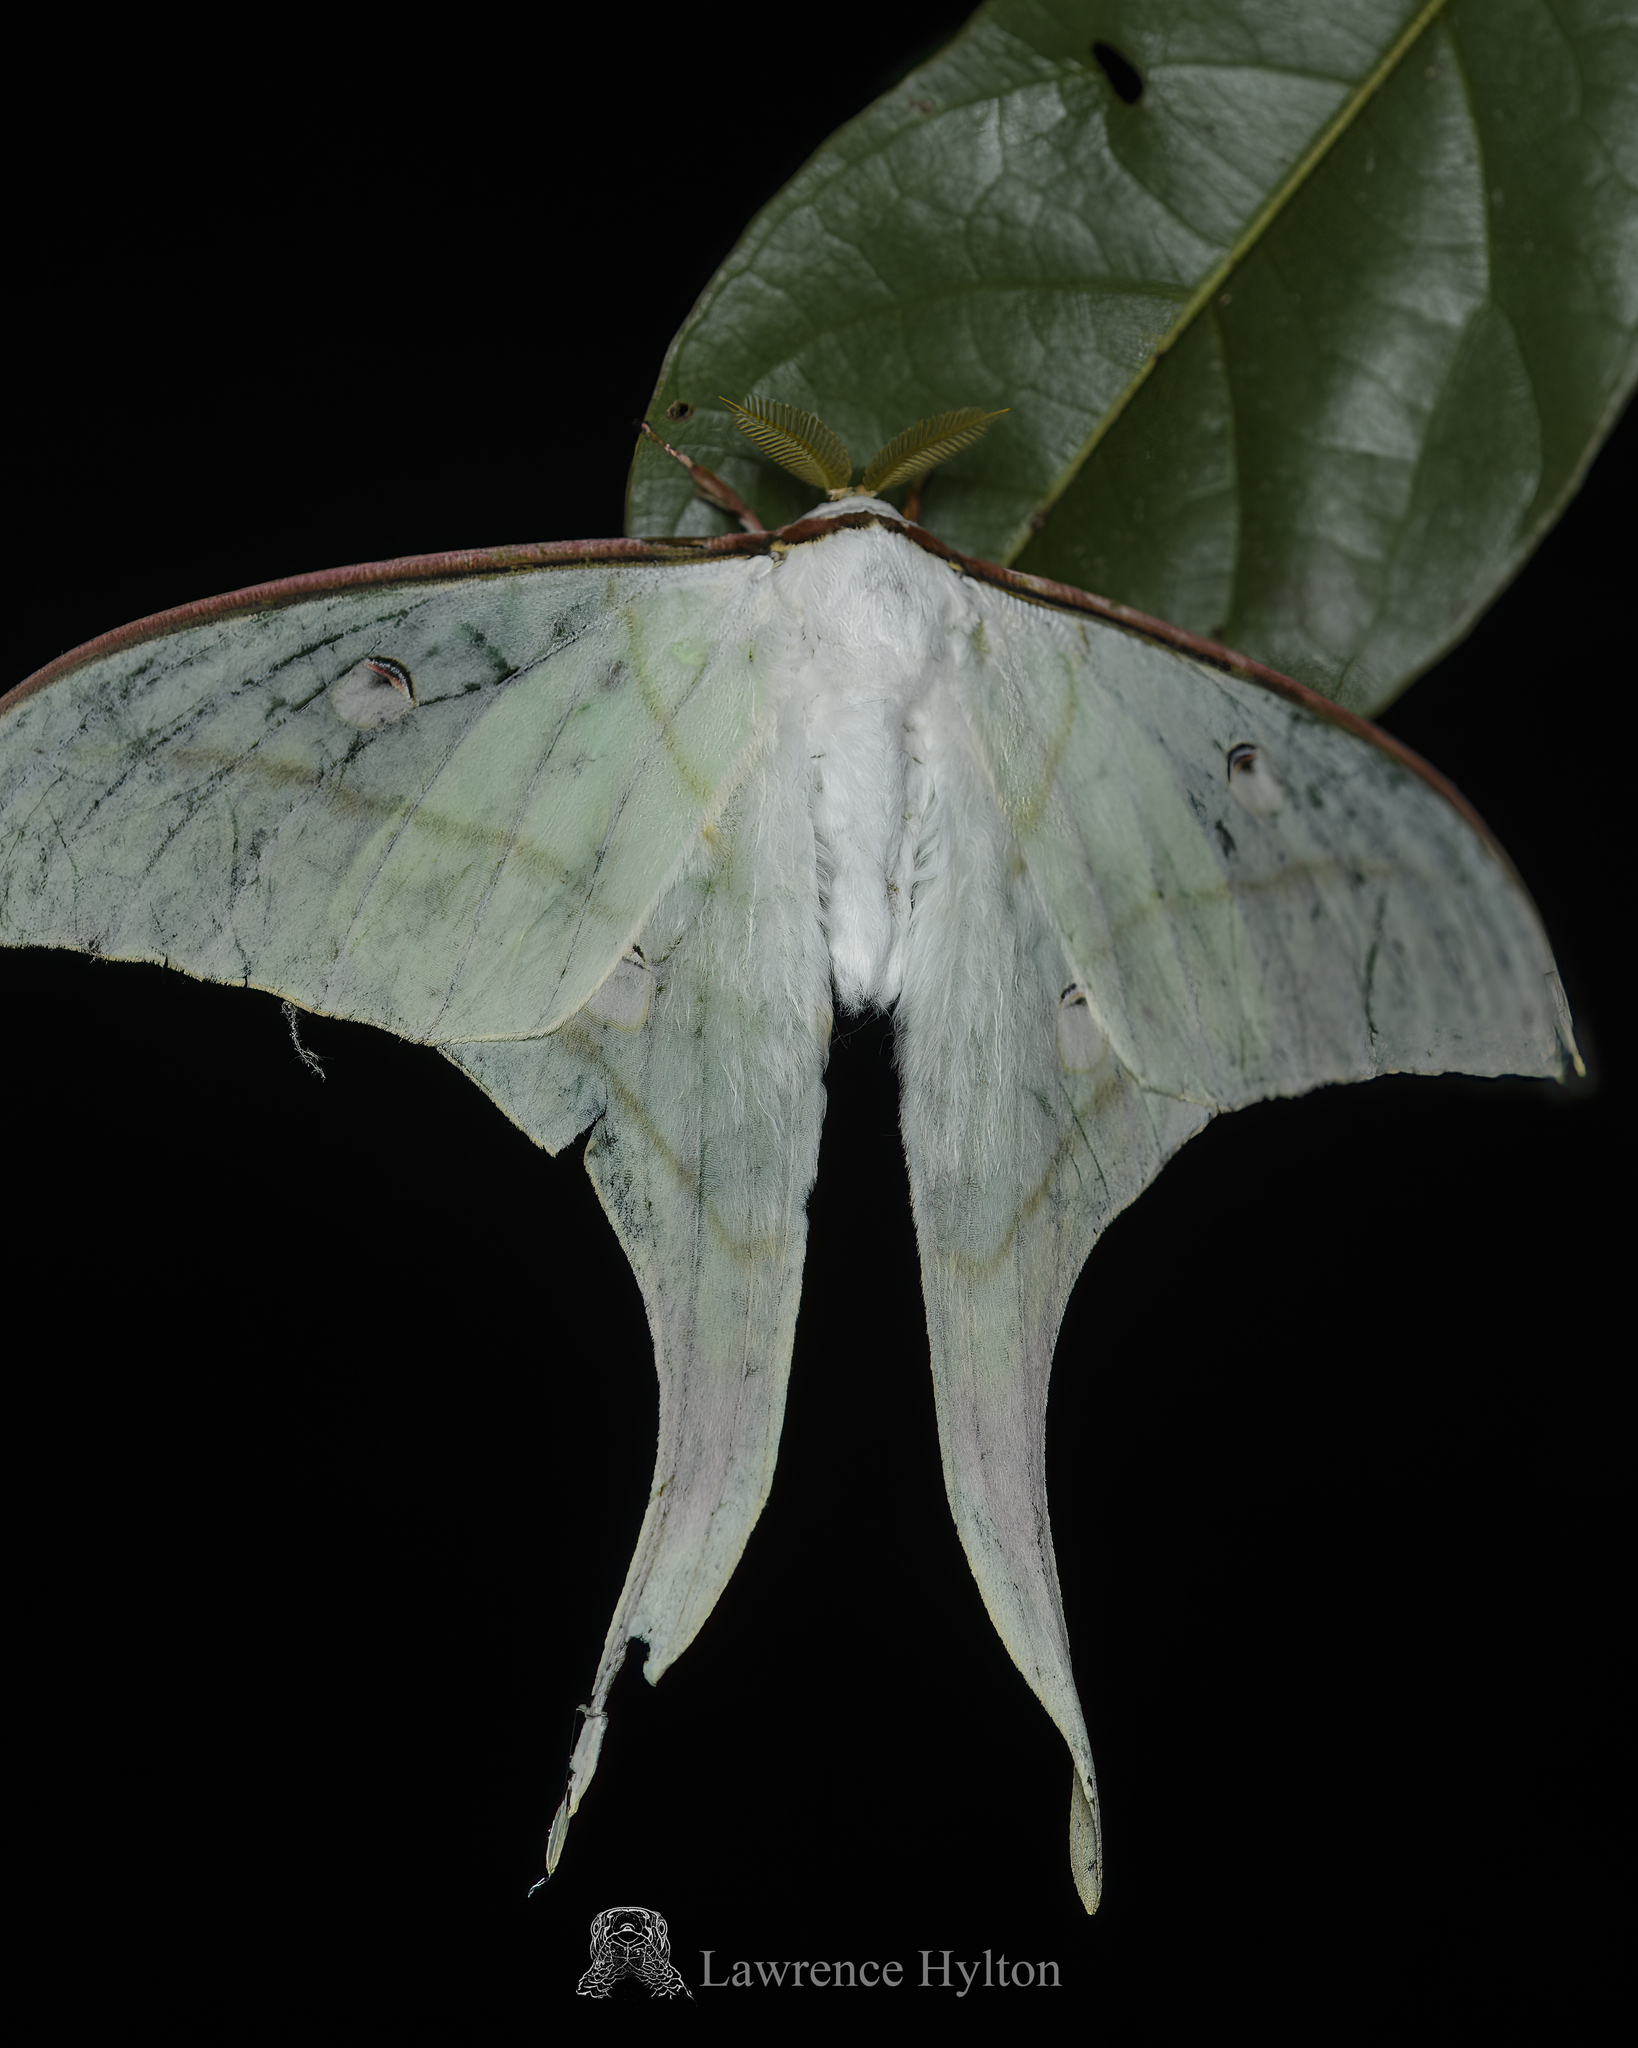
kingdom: Animalia
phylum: Arthropoda
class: Insecta
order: Lepidoptera
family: Saturniidae
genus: Actias
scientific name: Actias ningpoana
